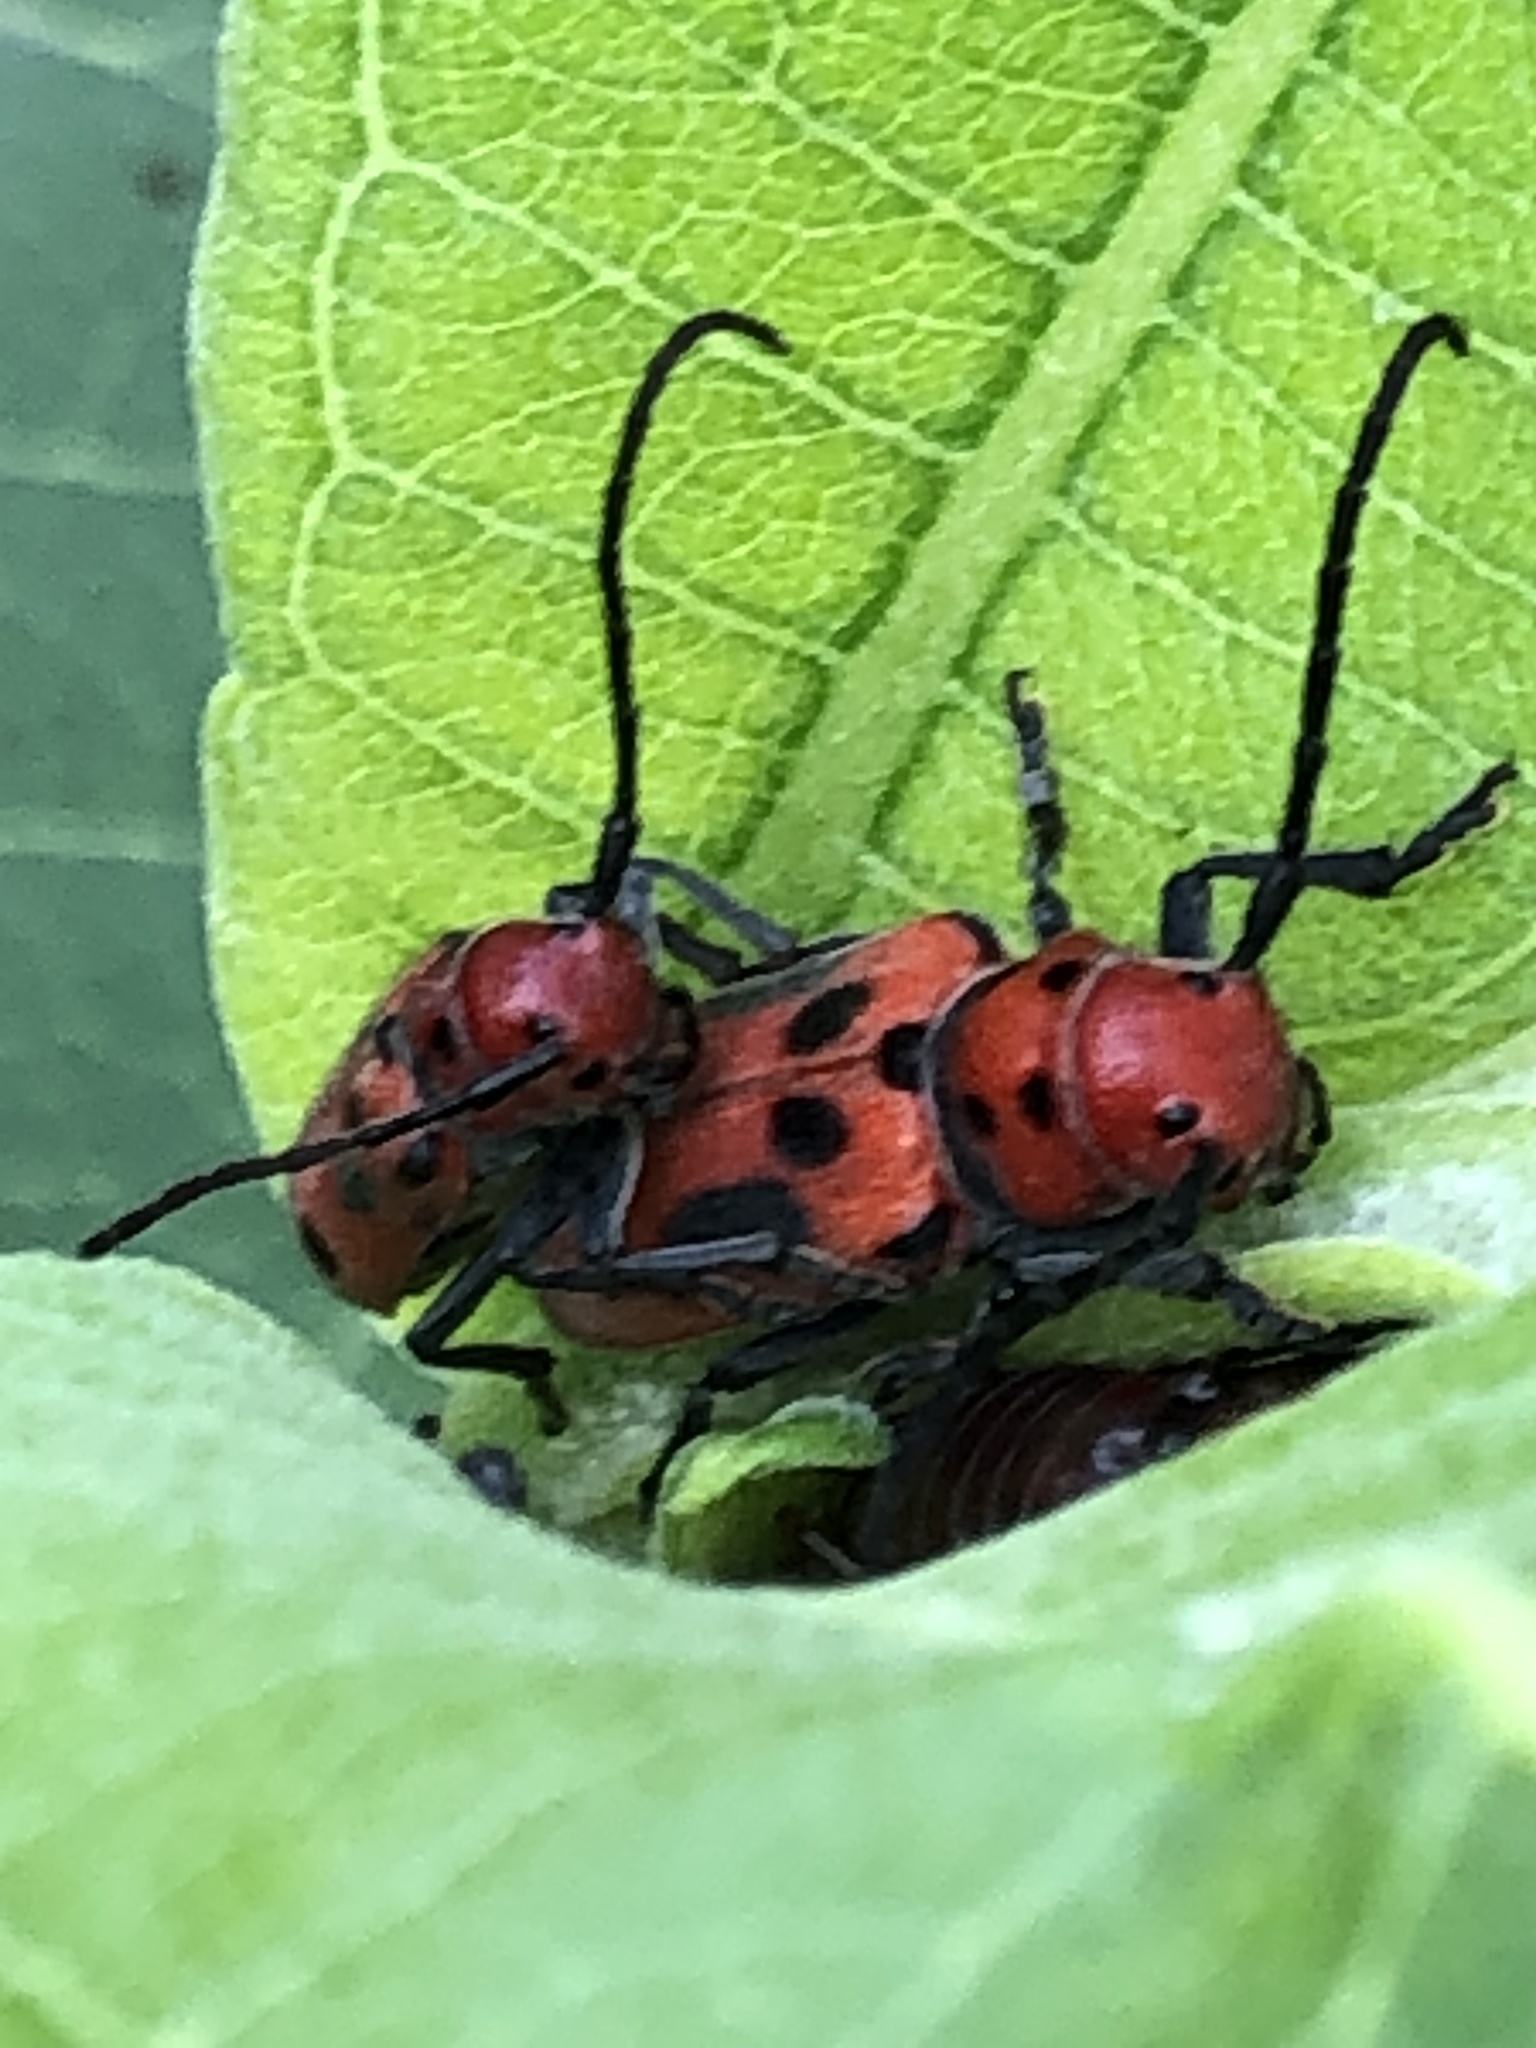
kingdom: Animalia
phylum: Arthropoda
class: Insecta
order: Coleoptera
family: Cerambycidae
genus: Tetraopes
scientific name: Tetraopes tetrophthalmus
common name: Red milkweed beetle
